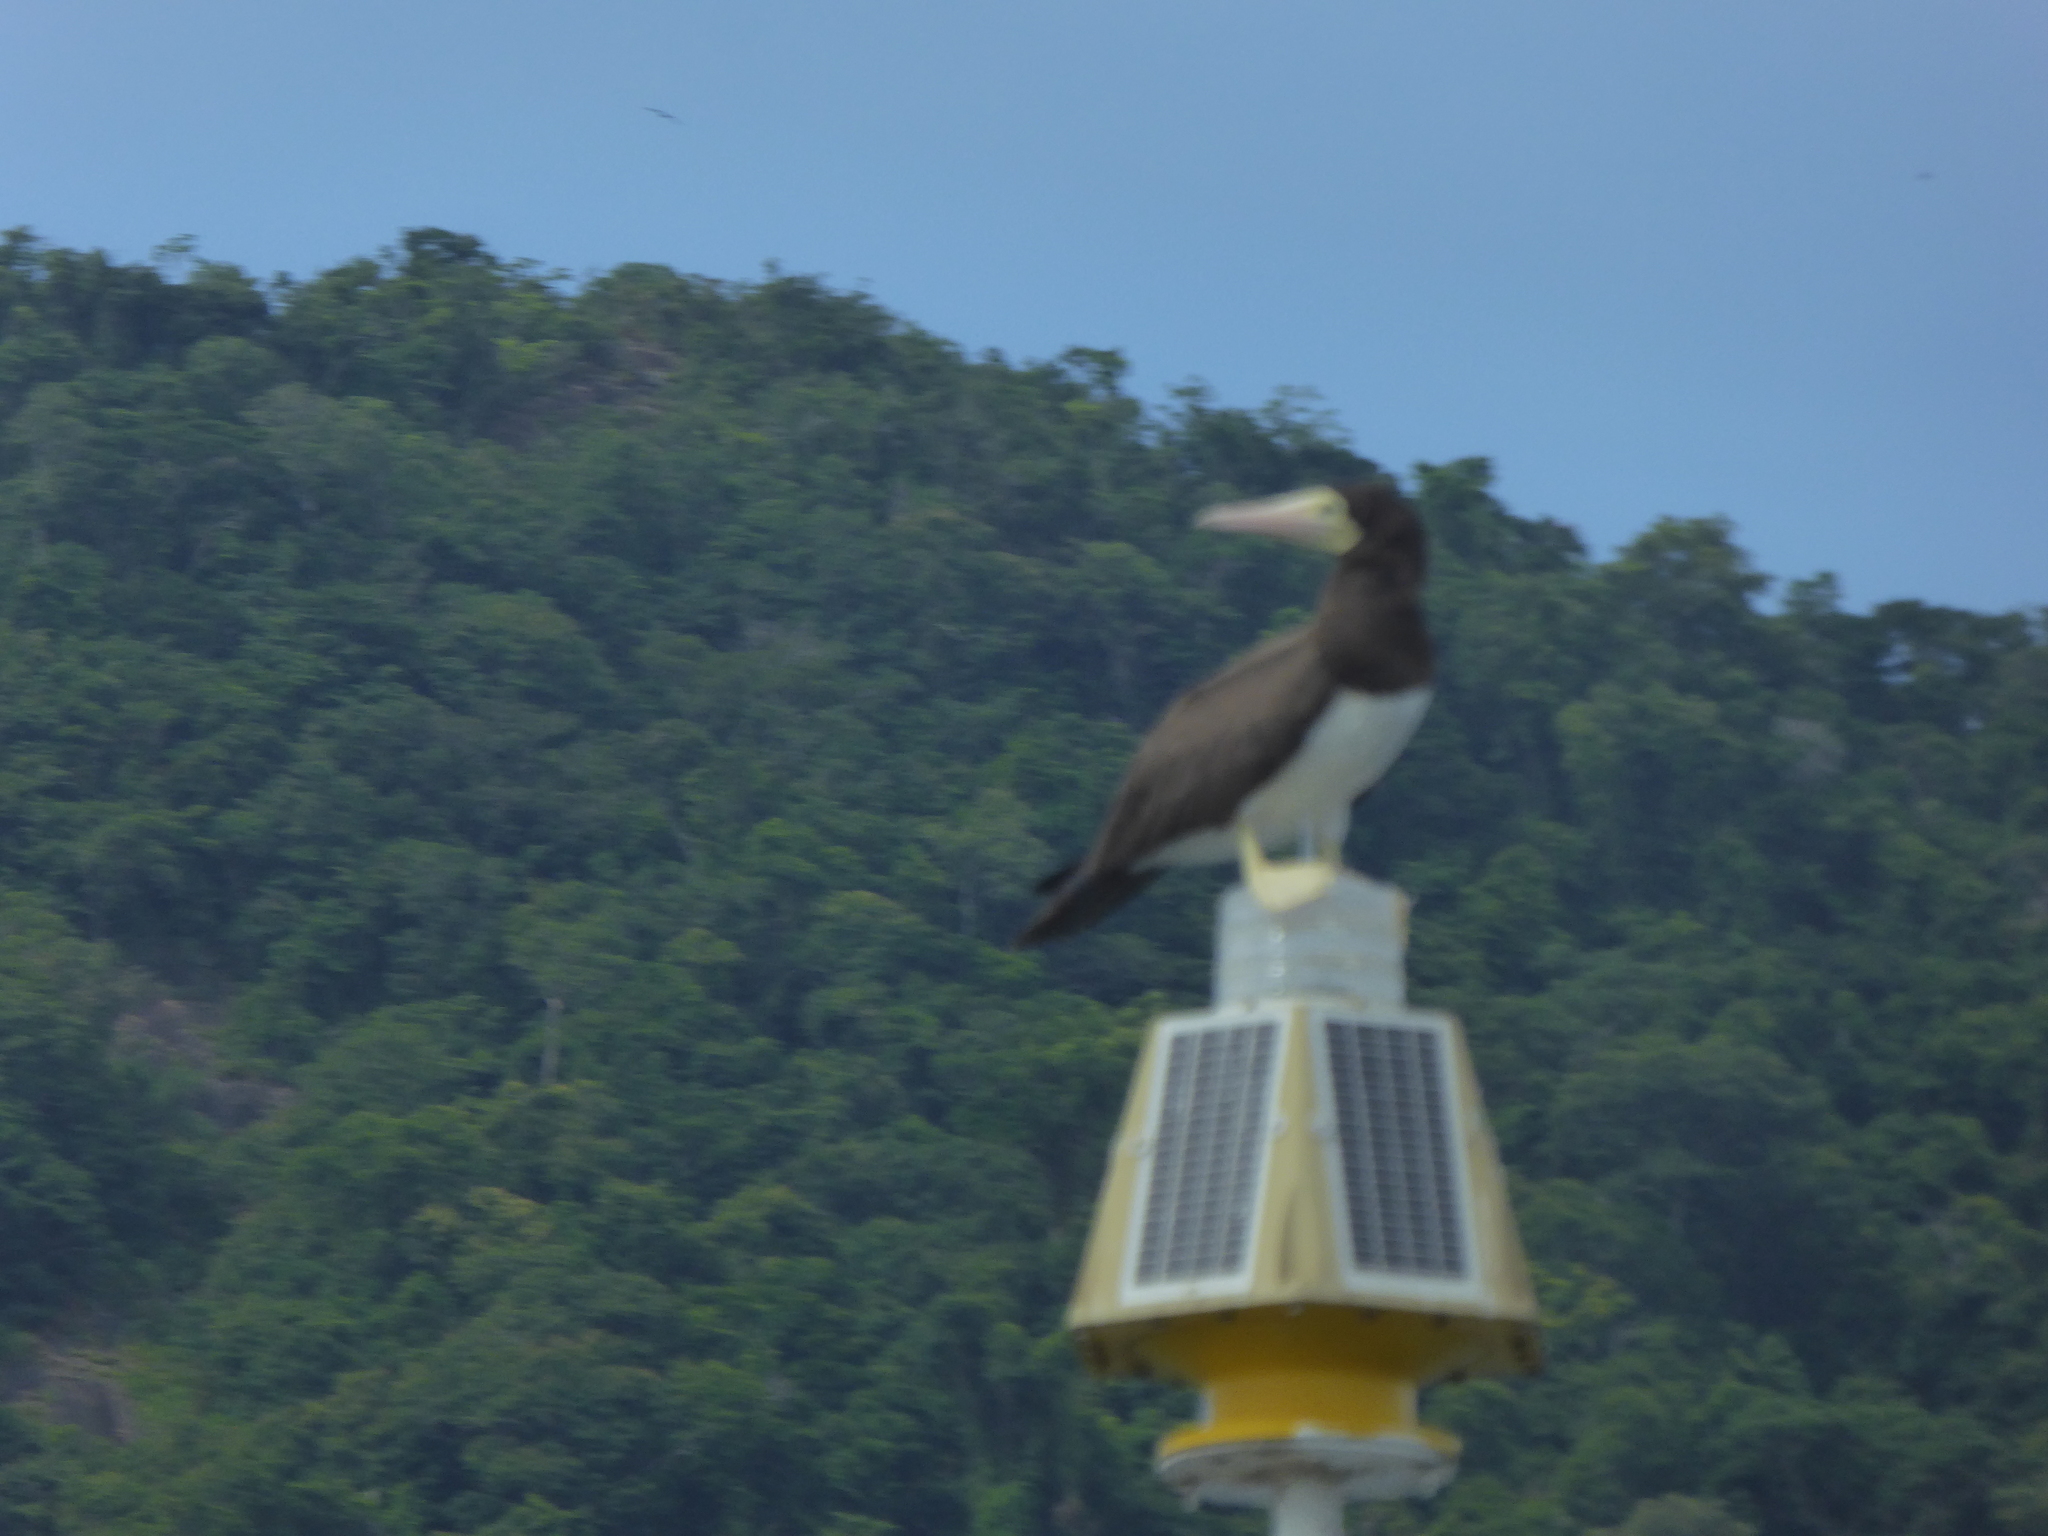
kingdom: Animalia
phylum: Chordata
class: Aves
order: Suliformes
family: Sulidae
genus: Sula
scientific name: Sula leucogaster
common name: Brown booby
